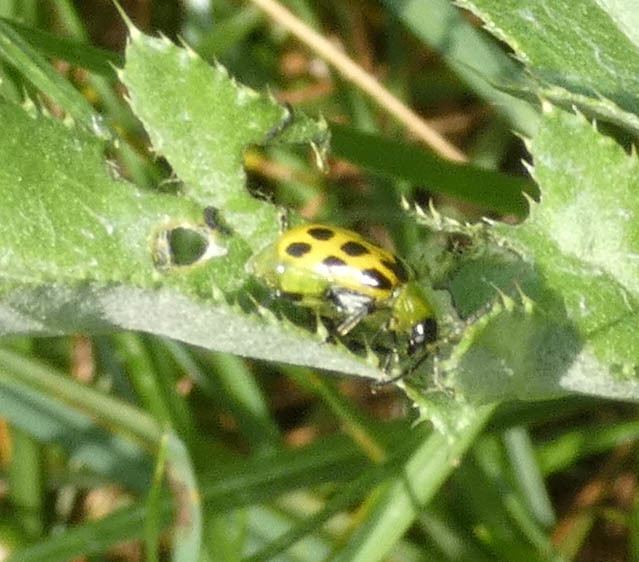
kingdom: Animalia
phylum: Arthropoda
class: Insecta
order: Coleoptera
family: Chrysomelidae
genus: Diabrotica
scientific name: Diabrotica undecimpunctata
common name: Spotted cucumber beetle
